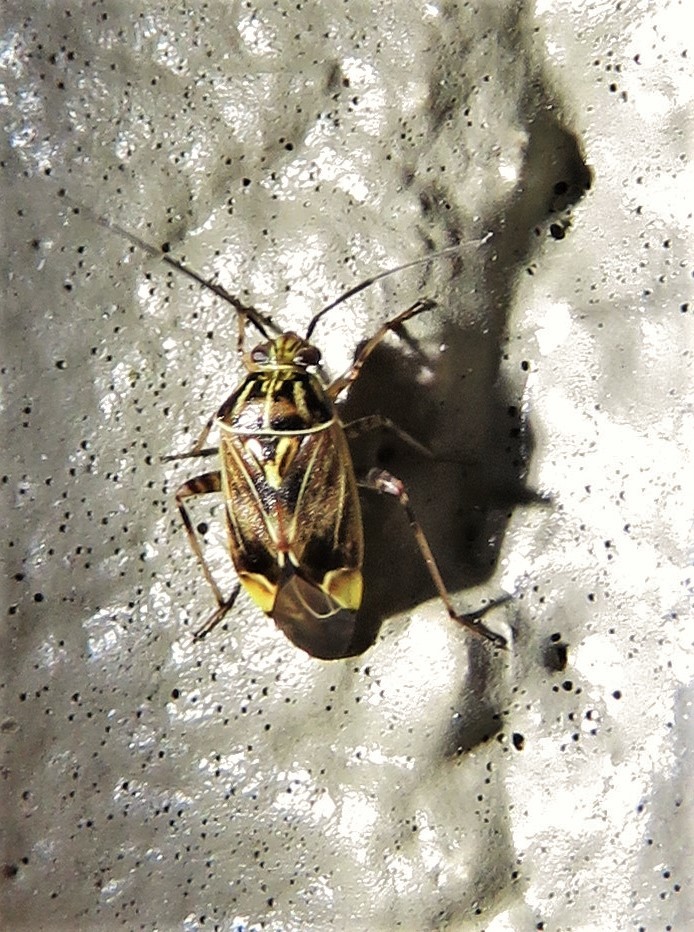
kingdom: Animalia
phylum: Arthropoda
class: Insecta
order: Hemiptera
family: Miridae
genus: Lygus
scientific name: Lygus lineolaris
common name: North american tarnished plant bug
